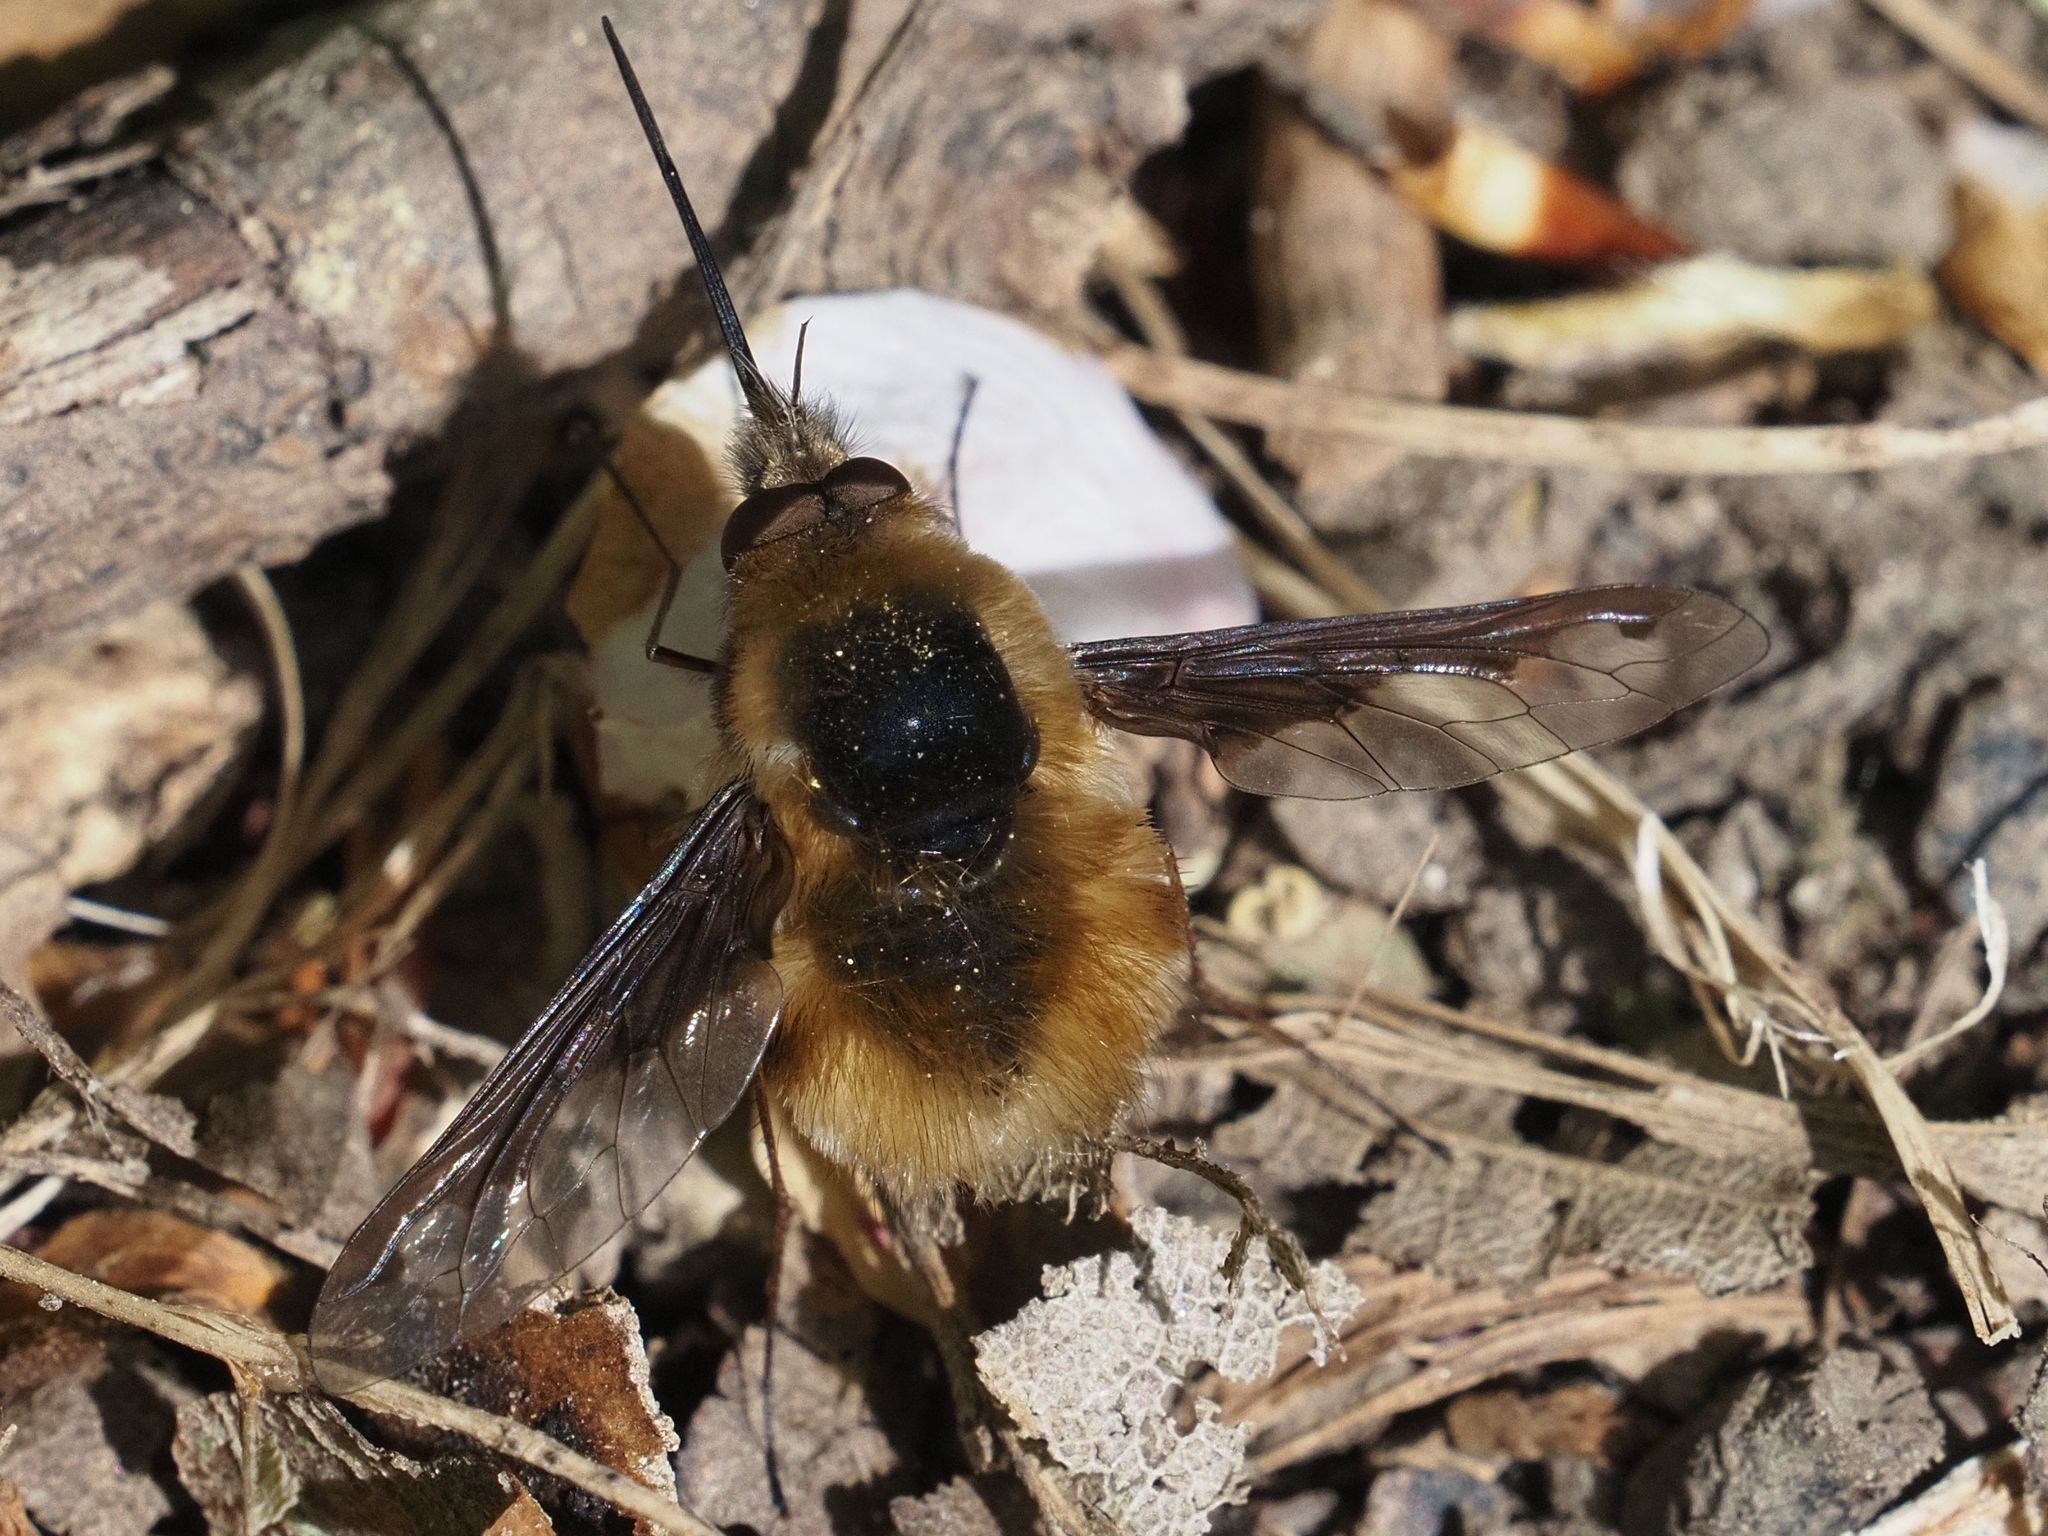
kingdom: Animalia
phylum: Arthropoda
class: Insecta
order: Diptera
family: Bombyliidae
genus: Bombylius
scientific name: Bombylius major
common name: Bee fly
